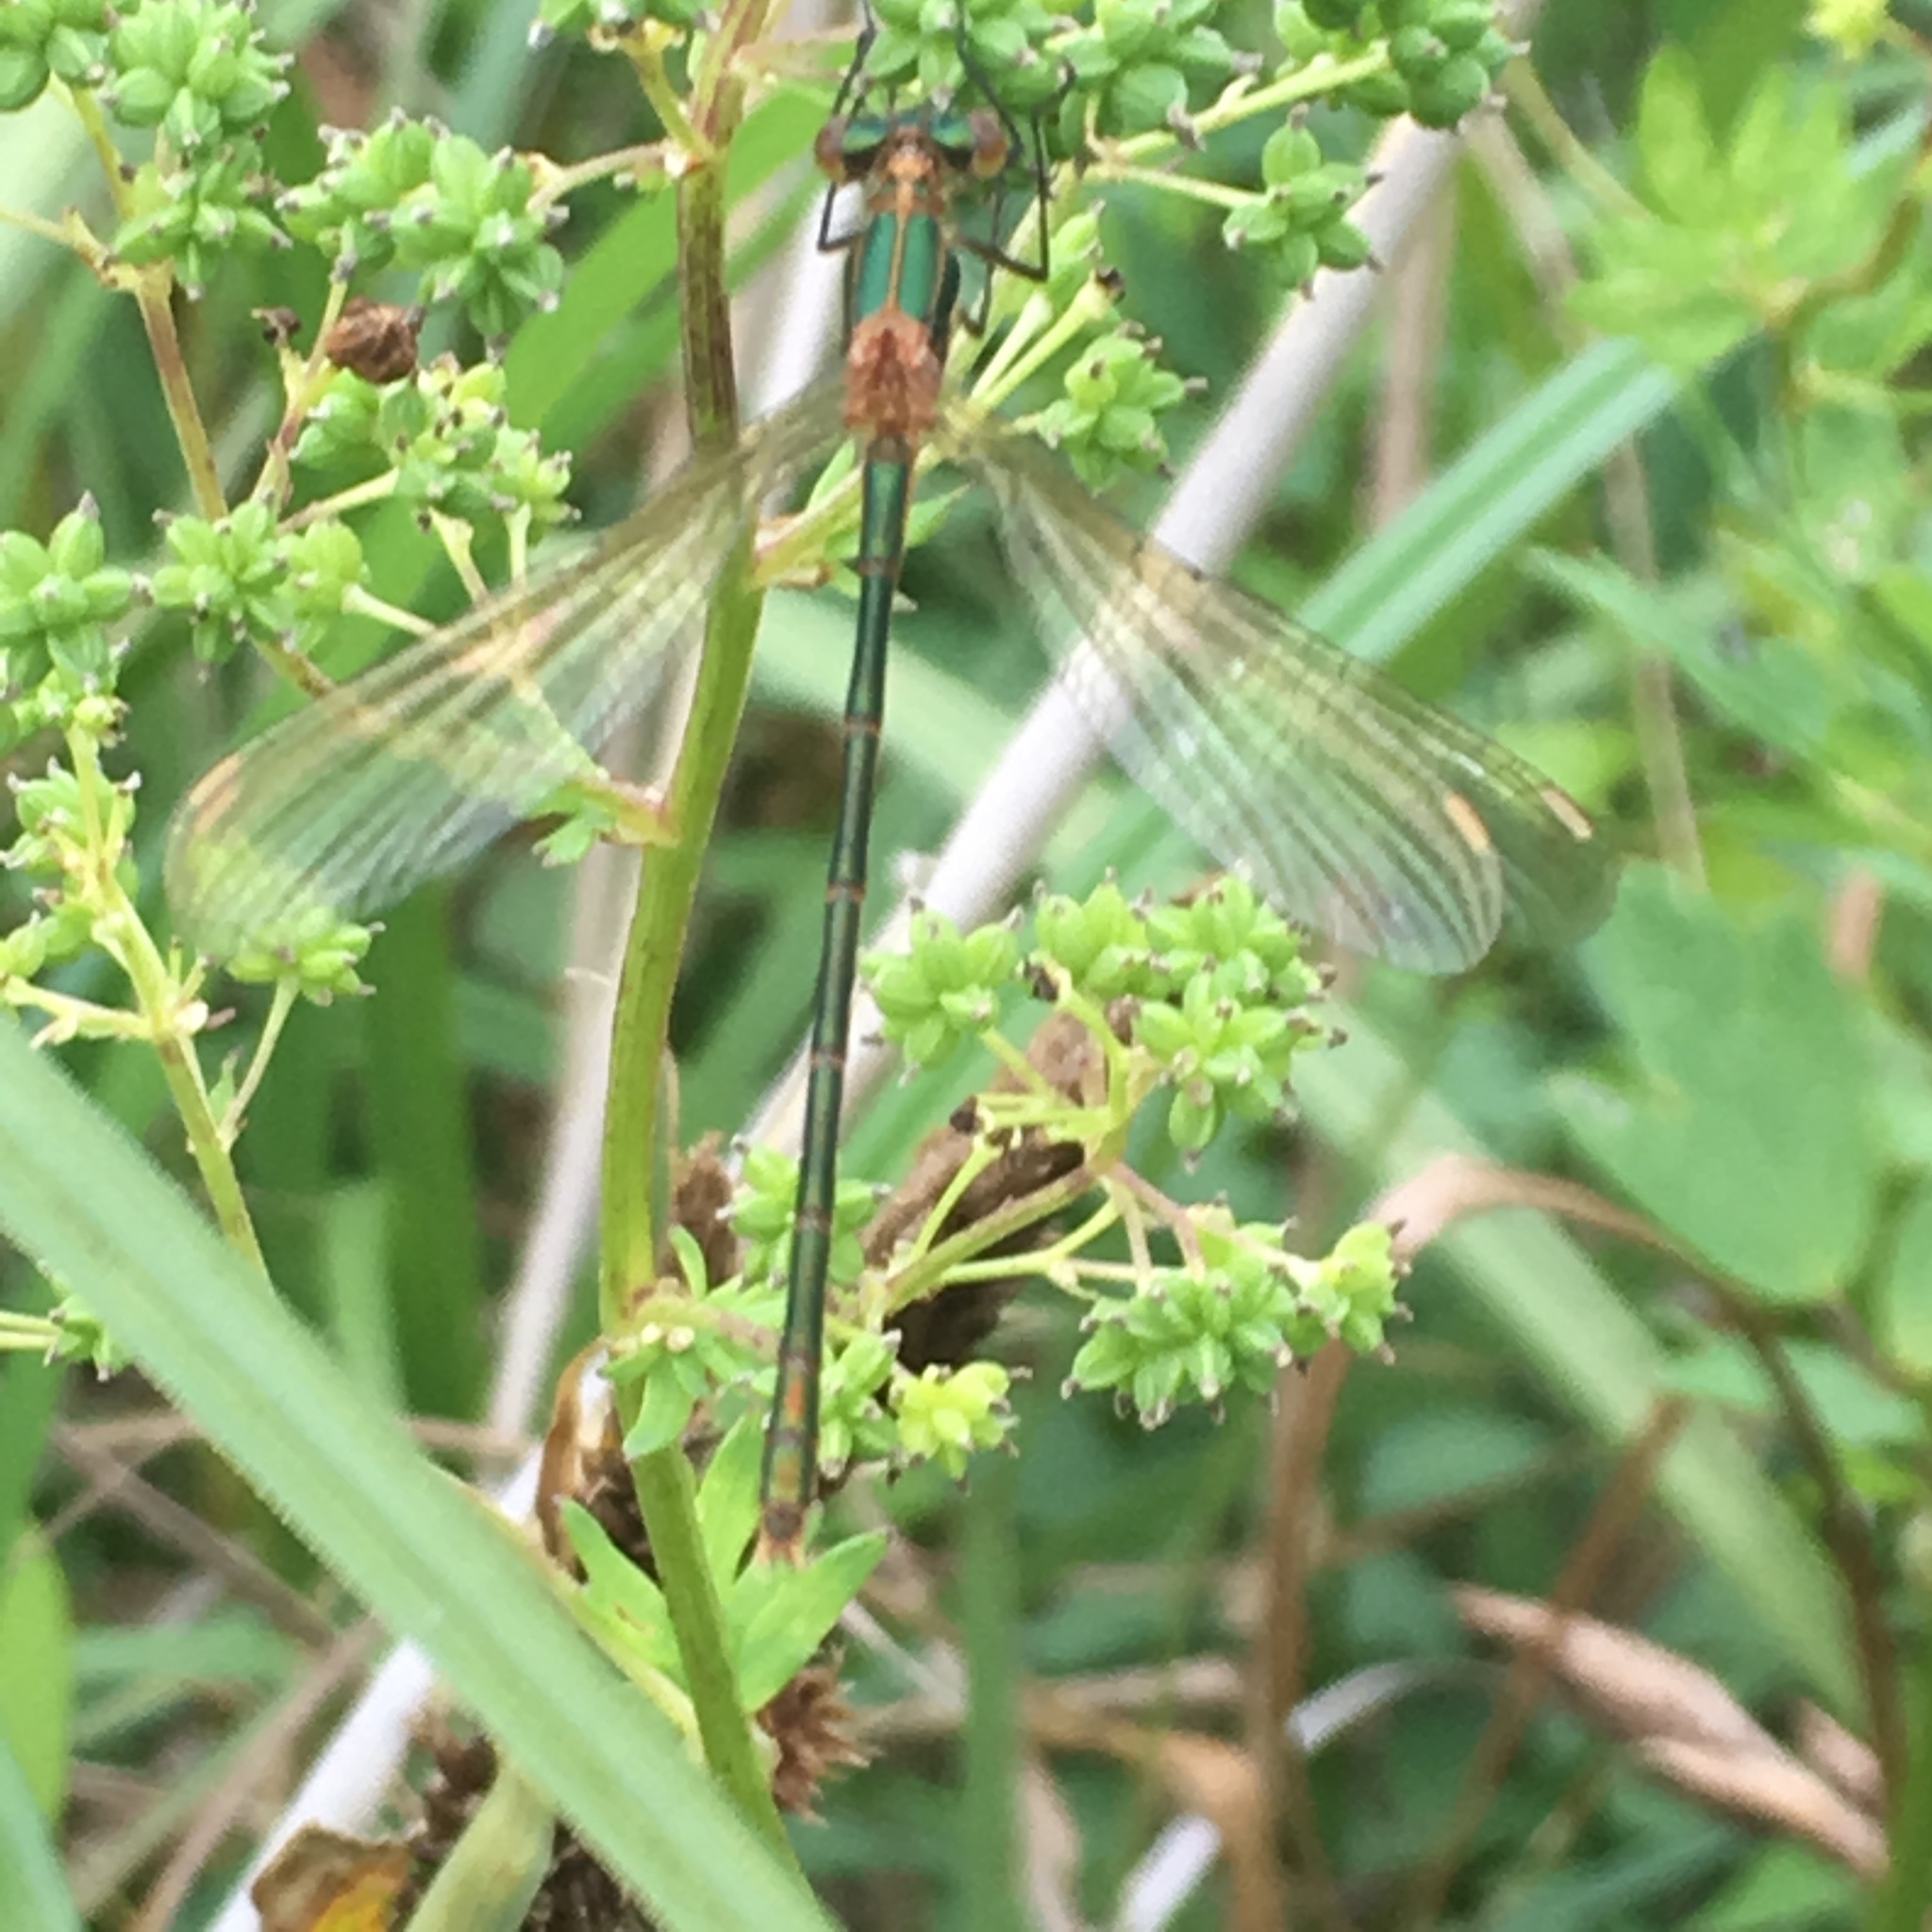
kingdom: Animalia
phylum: Arthropoda
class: Insecta
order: Odonata
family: Lestidae
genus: Lestes
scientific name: Lestes sponsa
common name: Common spreadwing
